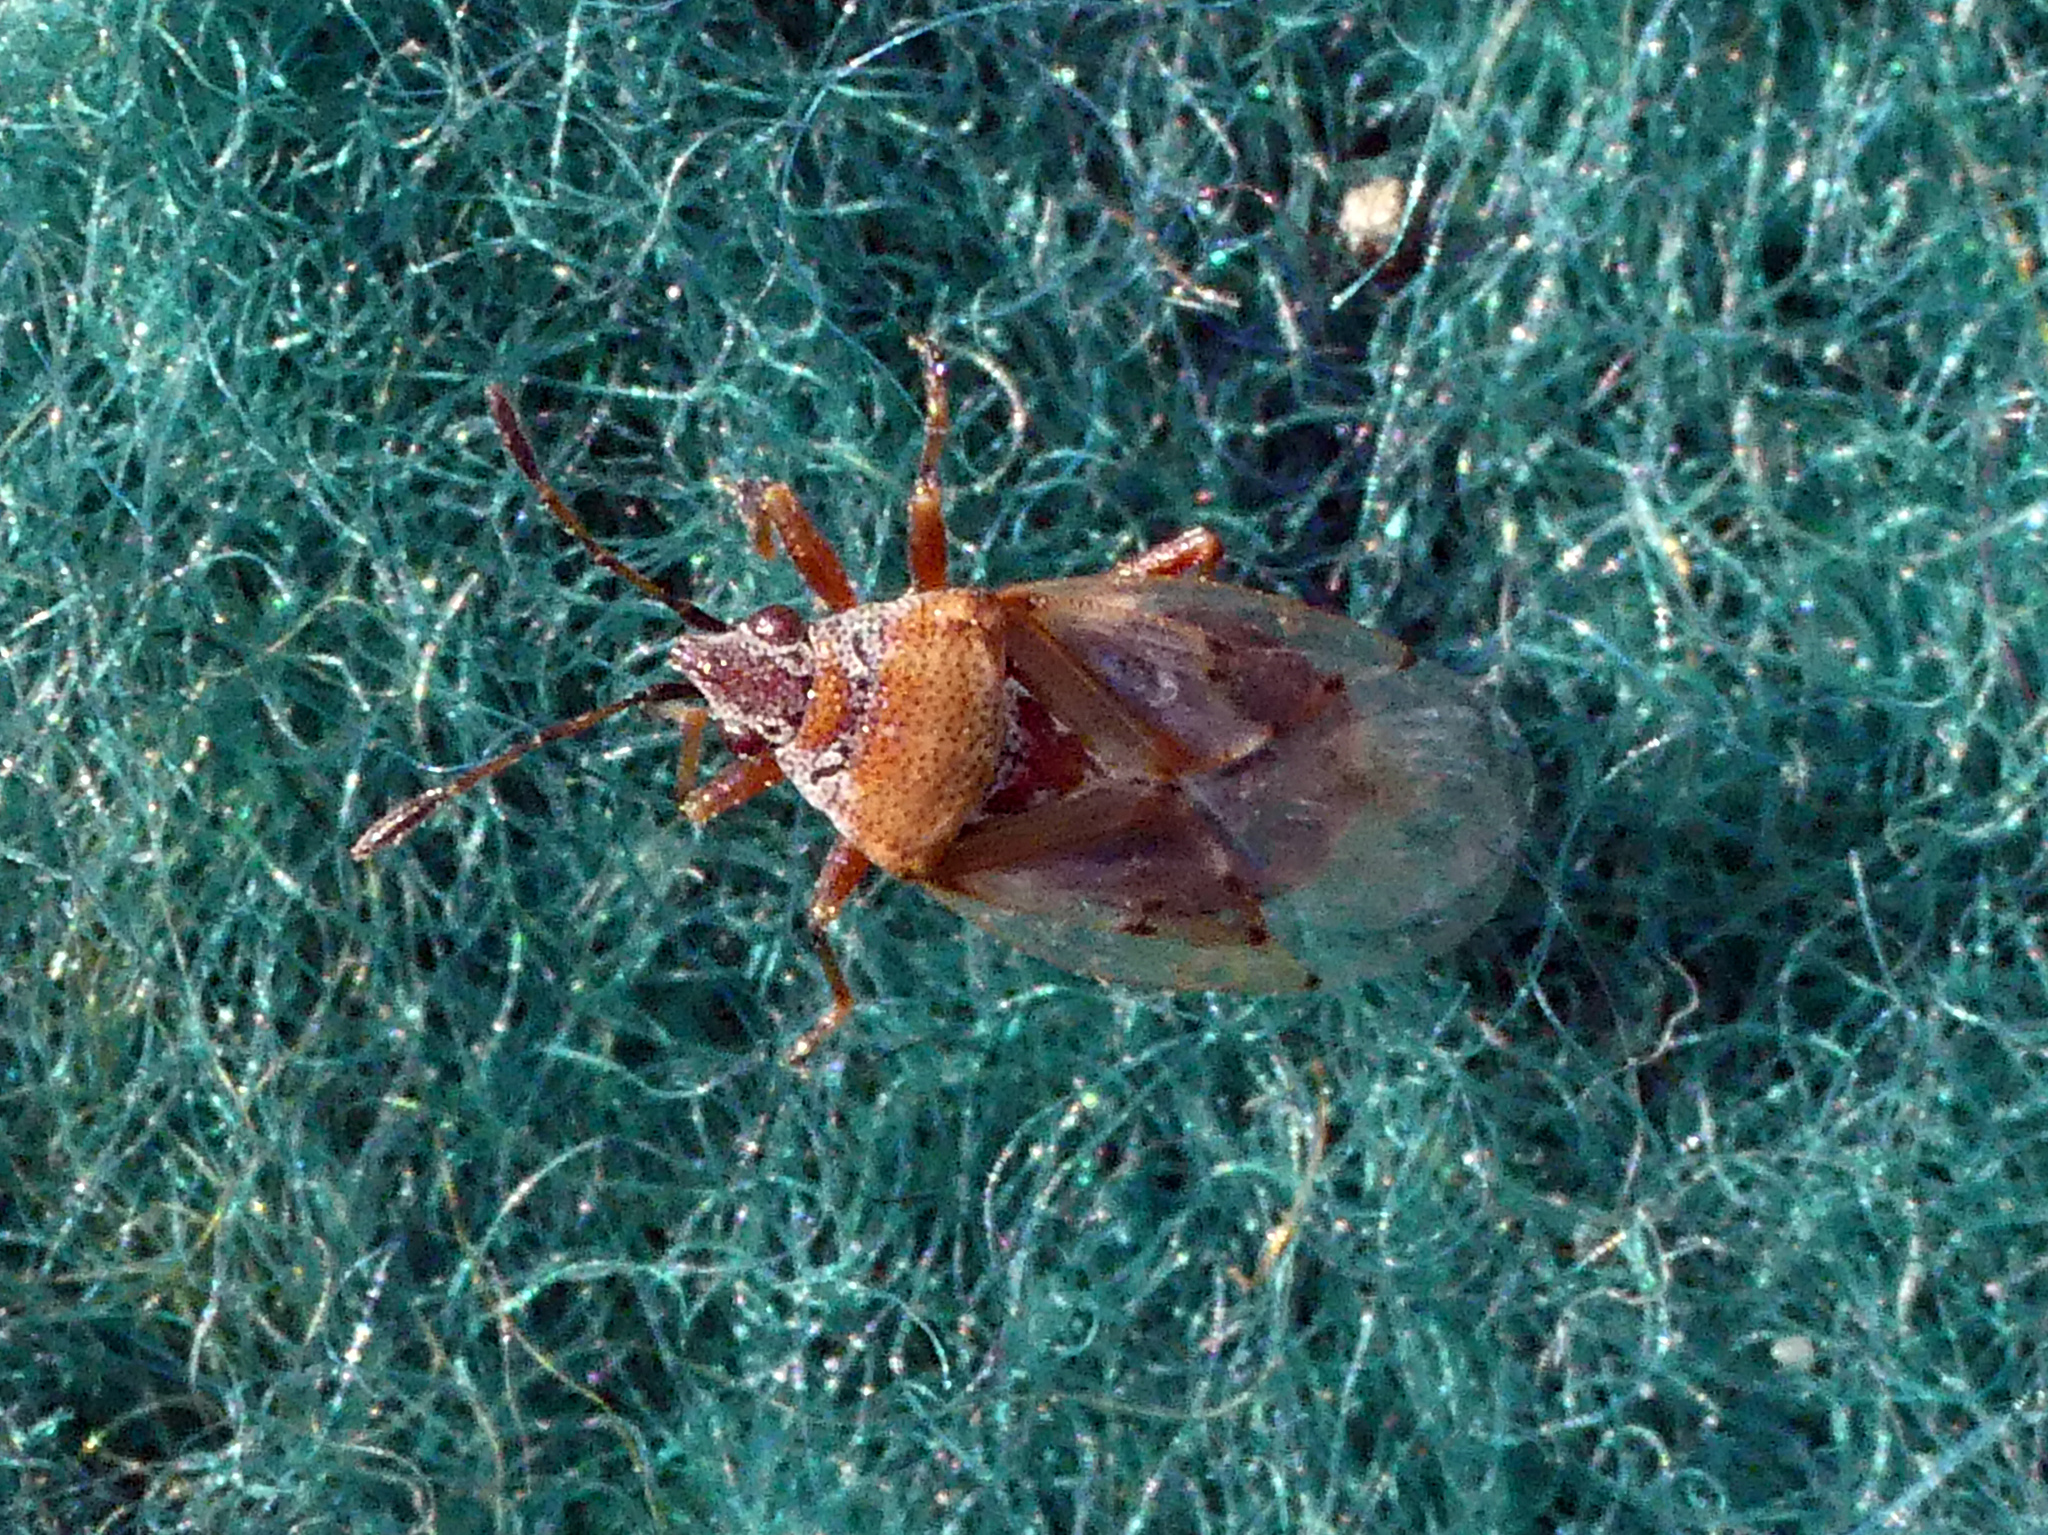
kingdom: Animalia
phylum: Arthropoda
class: Insecta
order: Hemiptera
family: Lygaeidae
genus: Kleidocerys
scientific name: Kleidocerys resedae
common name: Birch catkin bug
